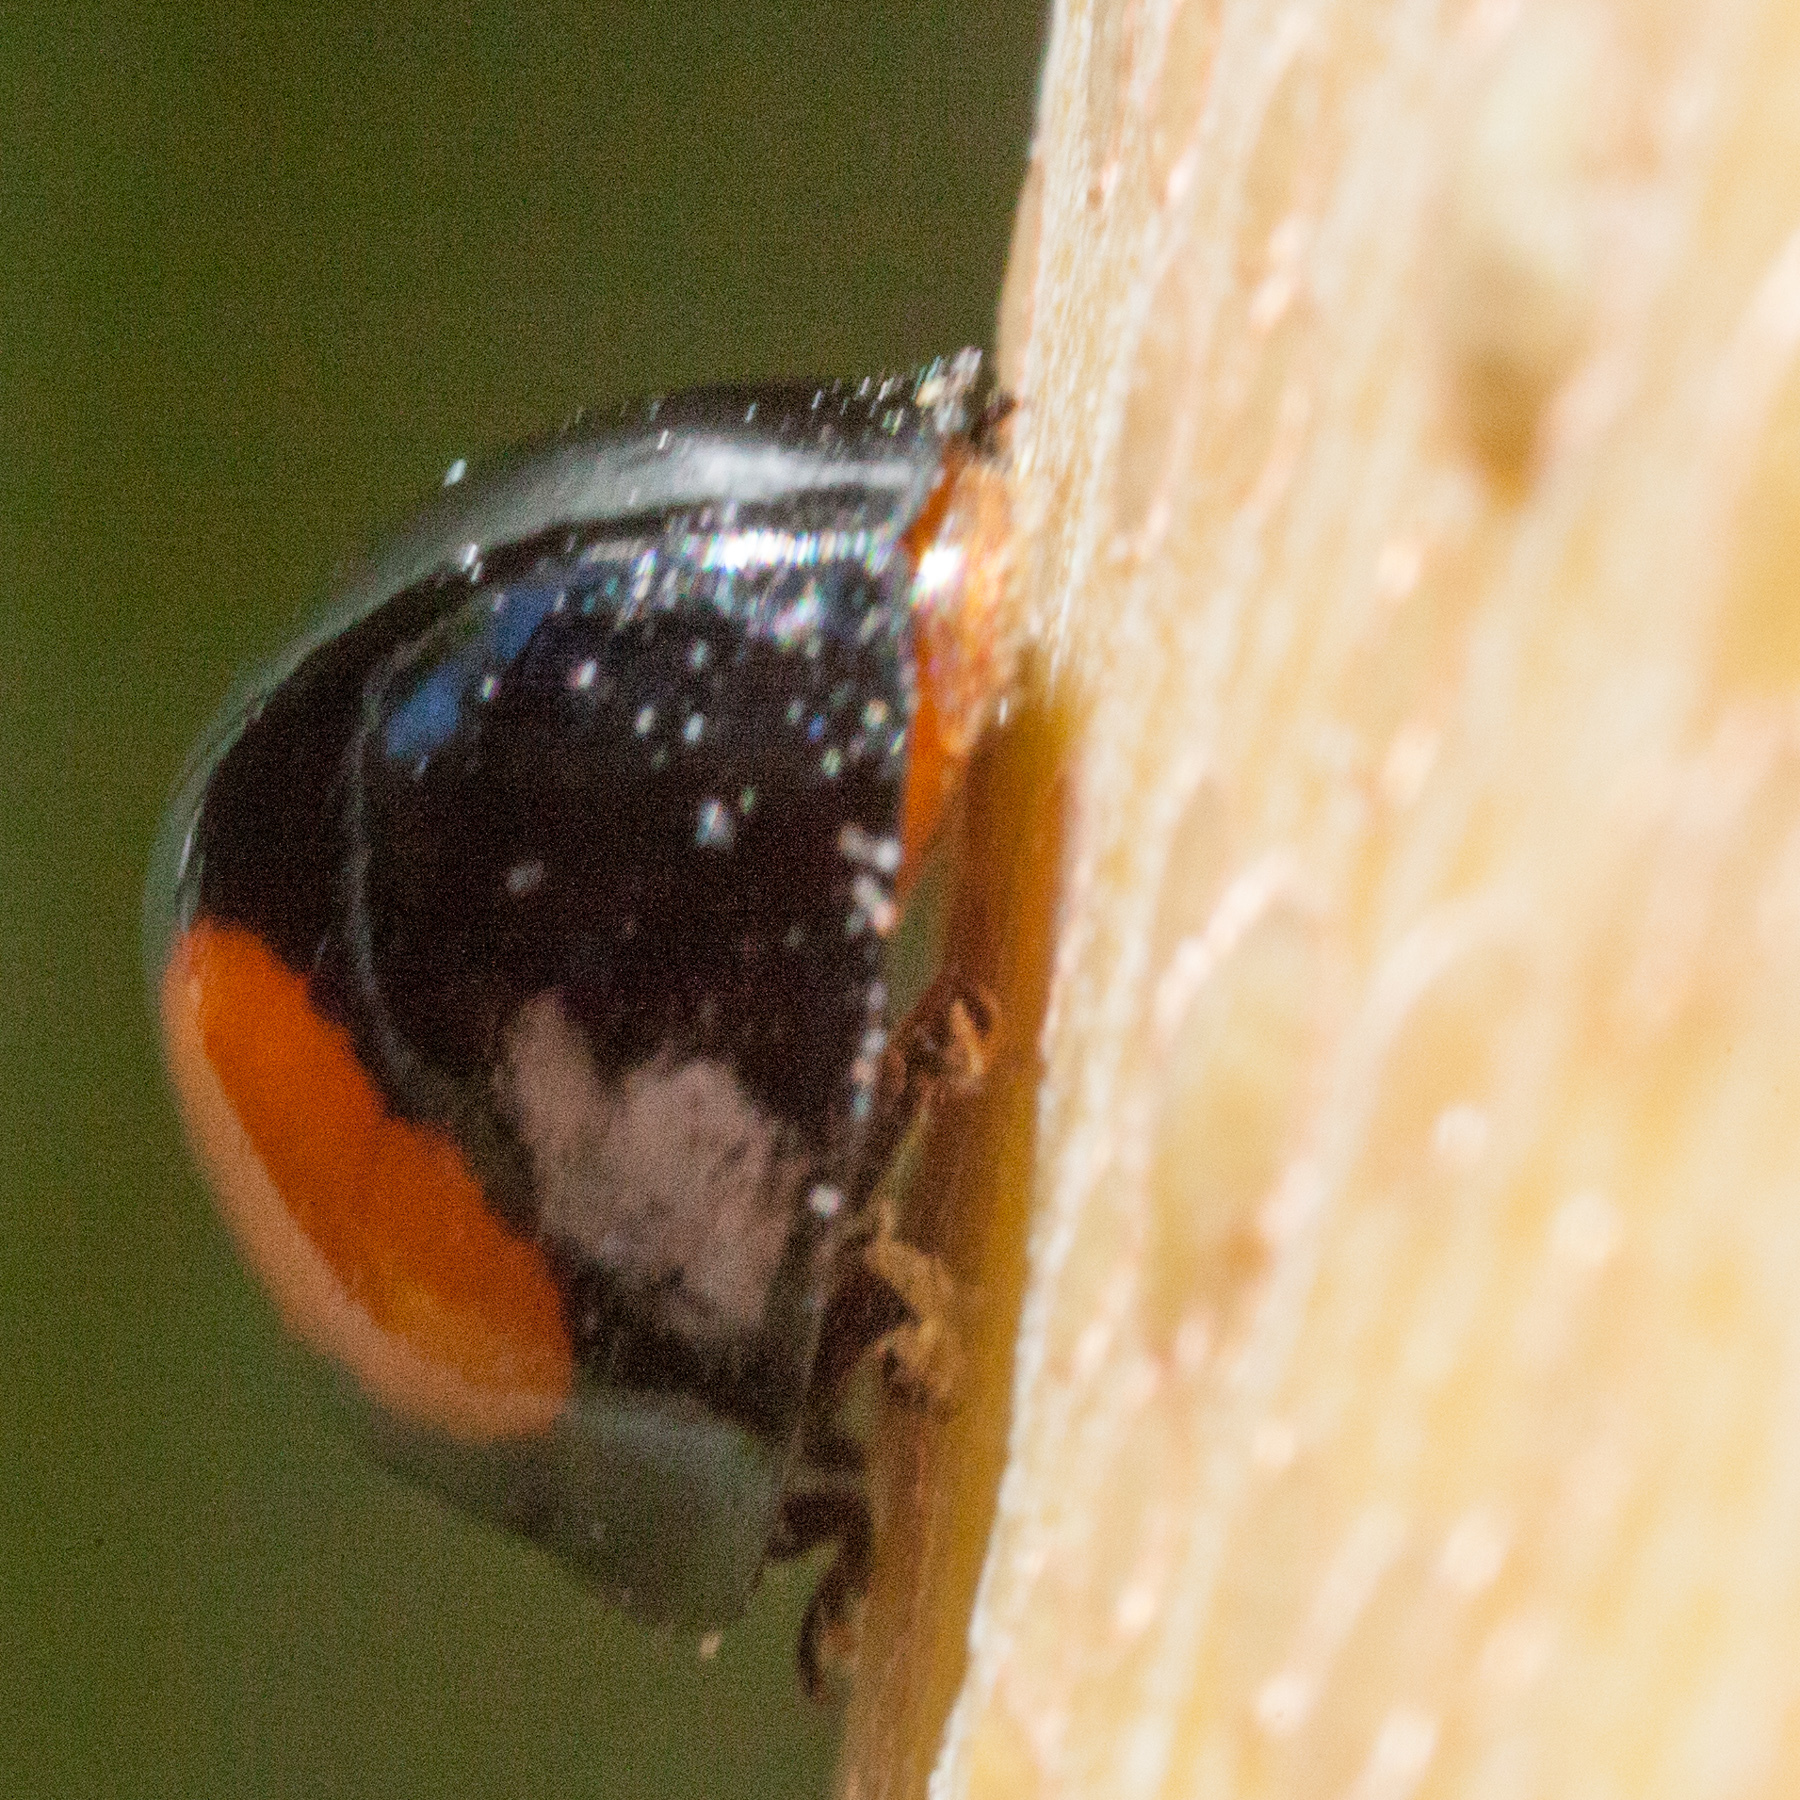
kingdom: Animalia
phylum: Arthropoda
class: Insecta
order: Coleoptera
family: Coccinellidae
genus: Chilocorus
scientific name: Chilocorus cacti
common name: Cactus lady beetle
